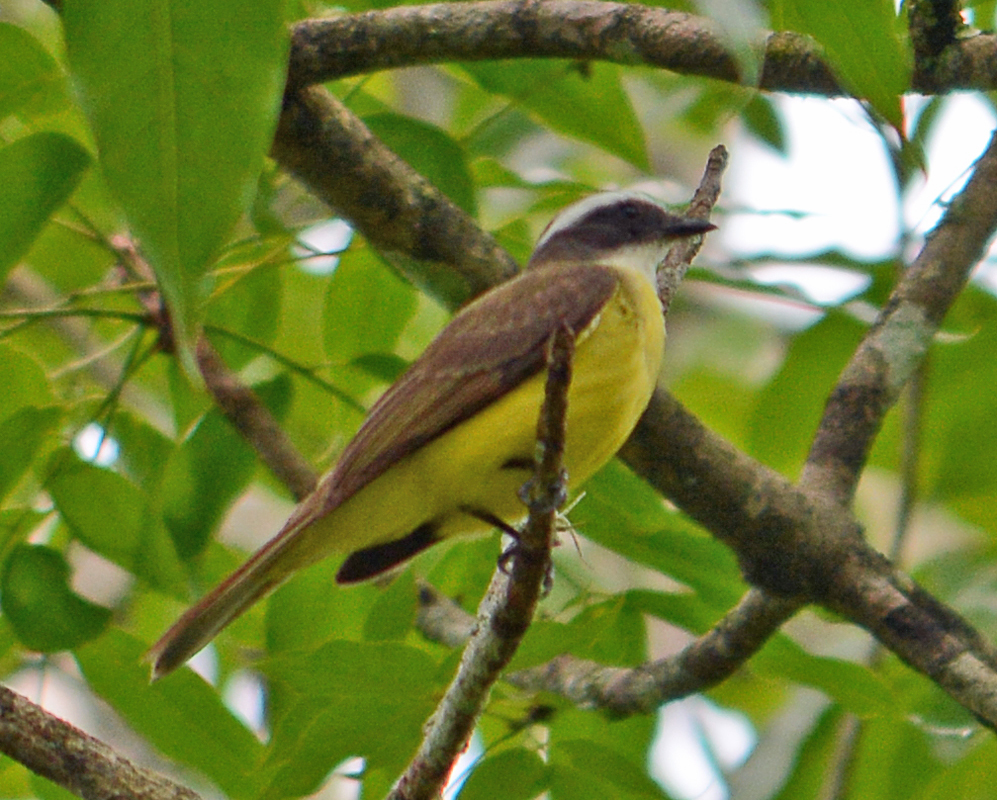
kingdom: Animalia
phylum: Chordata
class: Aves
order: Passeriformes
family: Tyrannidae
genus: Myiozetetes
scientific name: Myiozetetes similis
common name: Social flycatcher
